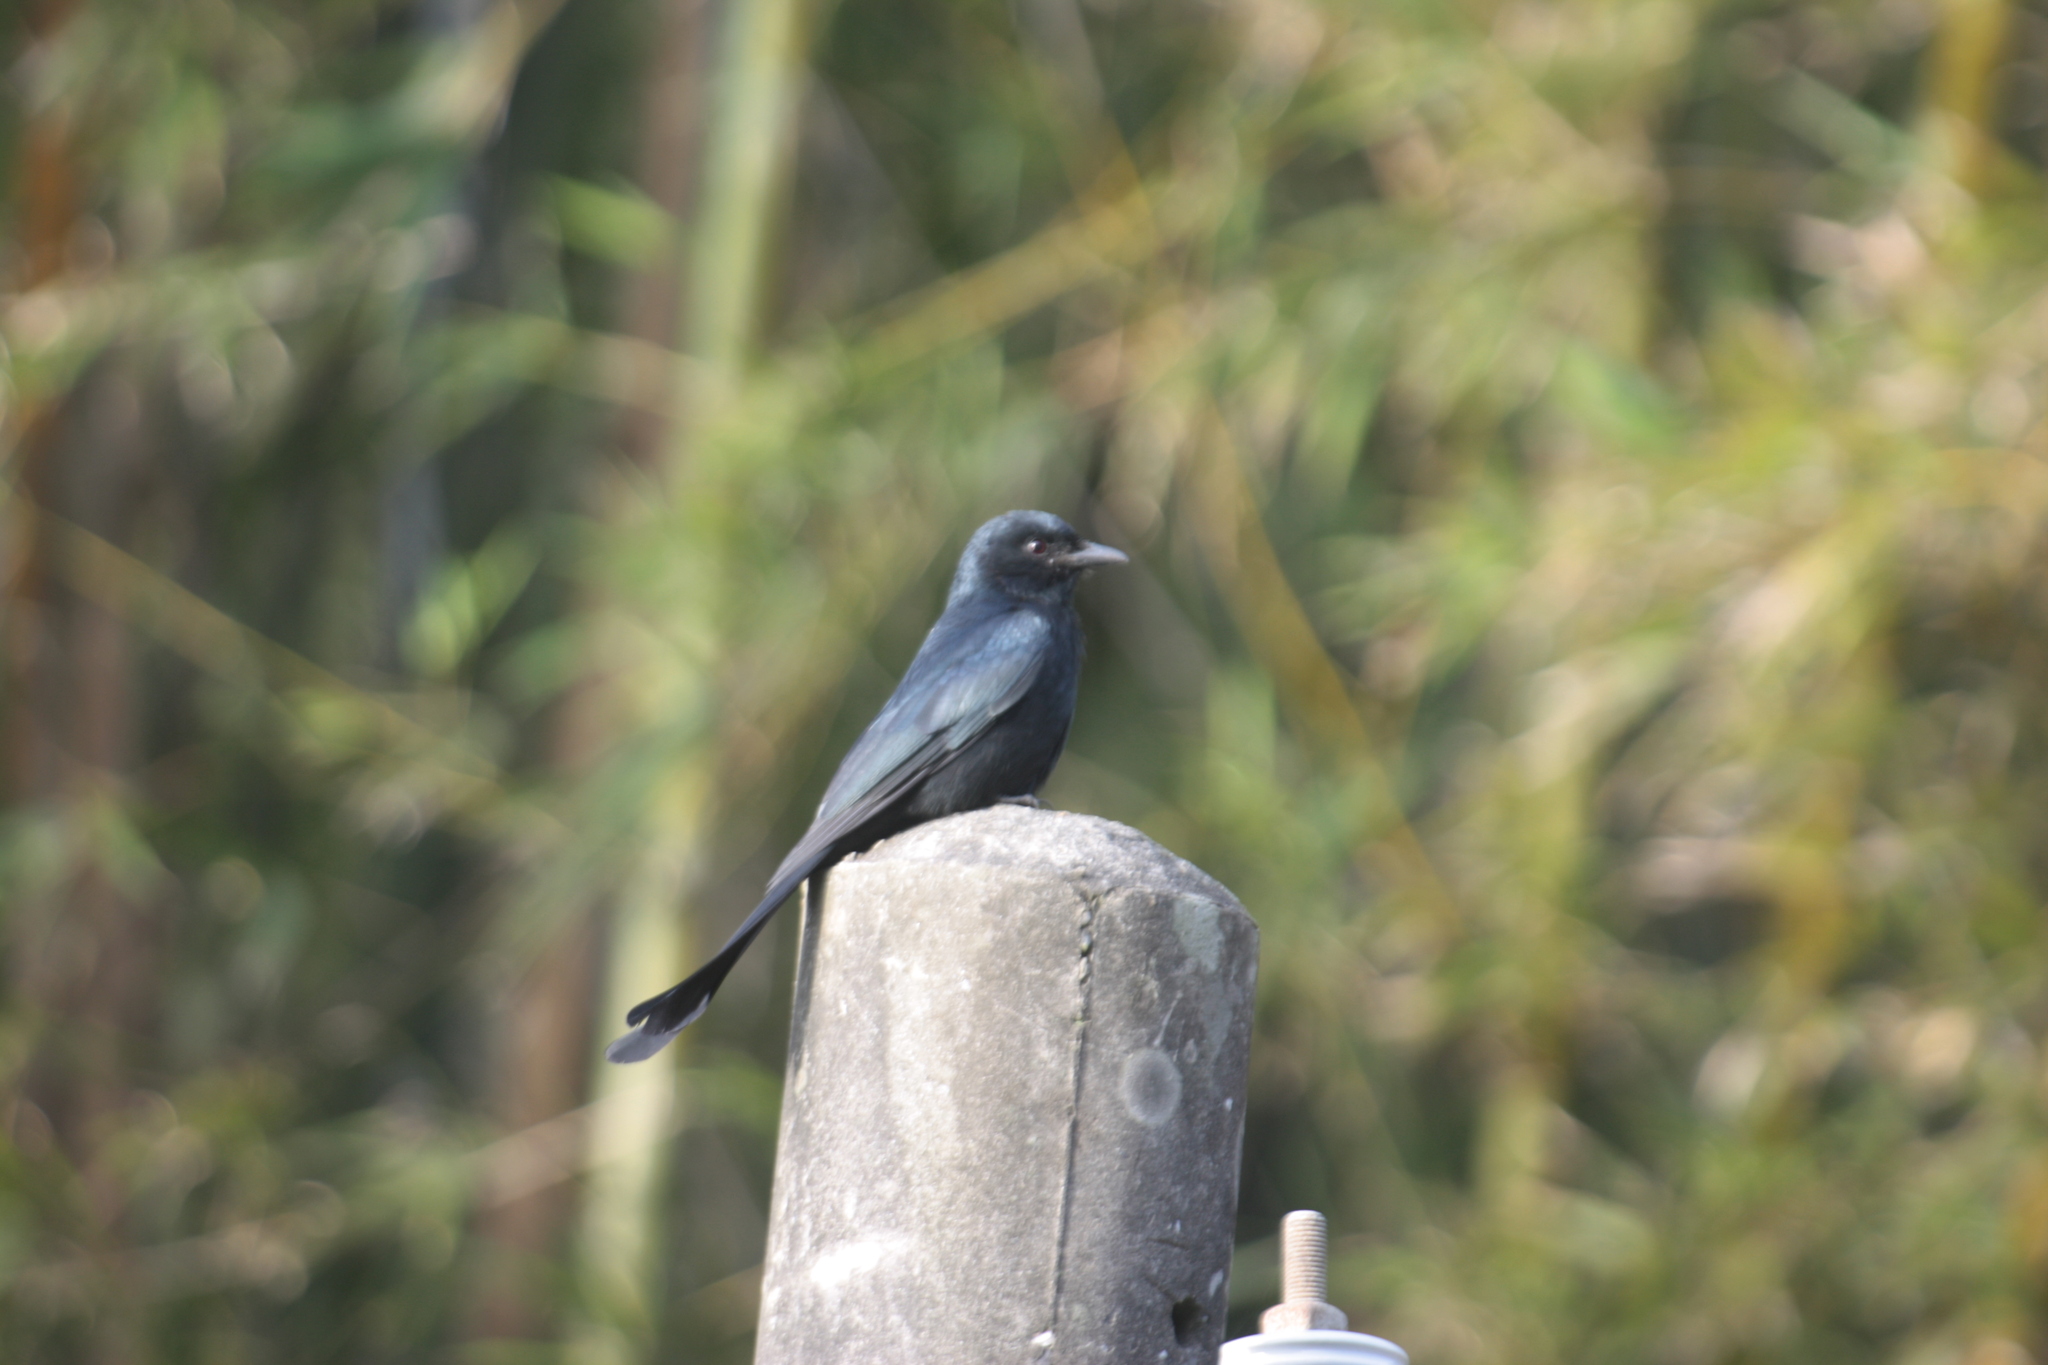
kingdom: Animalia
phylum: Chordata
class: Aves
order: Passeriformes
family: Dicruridae
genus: Dicrurus
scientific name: Dicrurus macrocercus
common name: Black drongo
